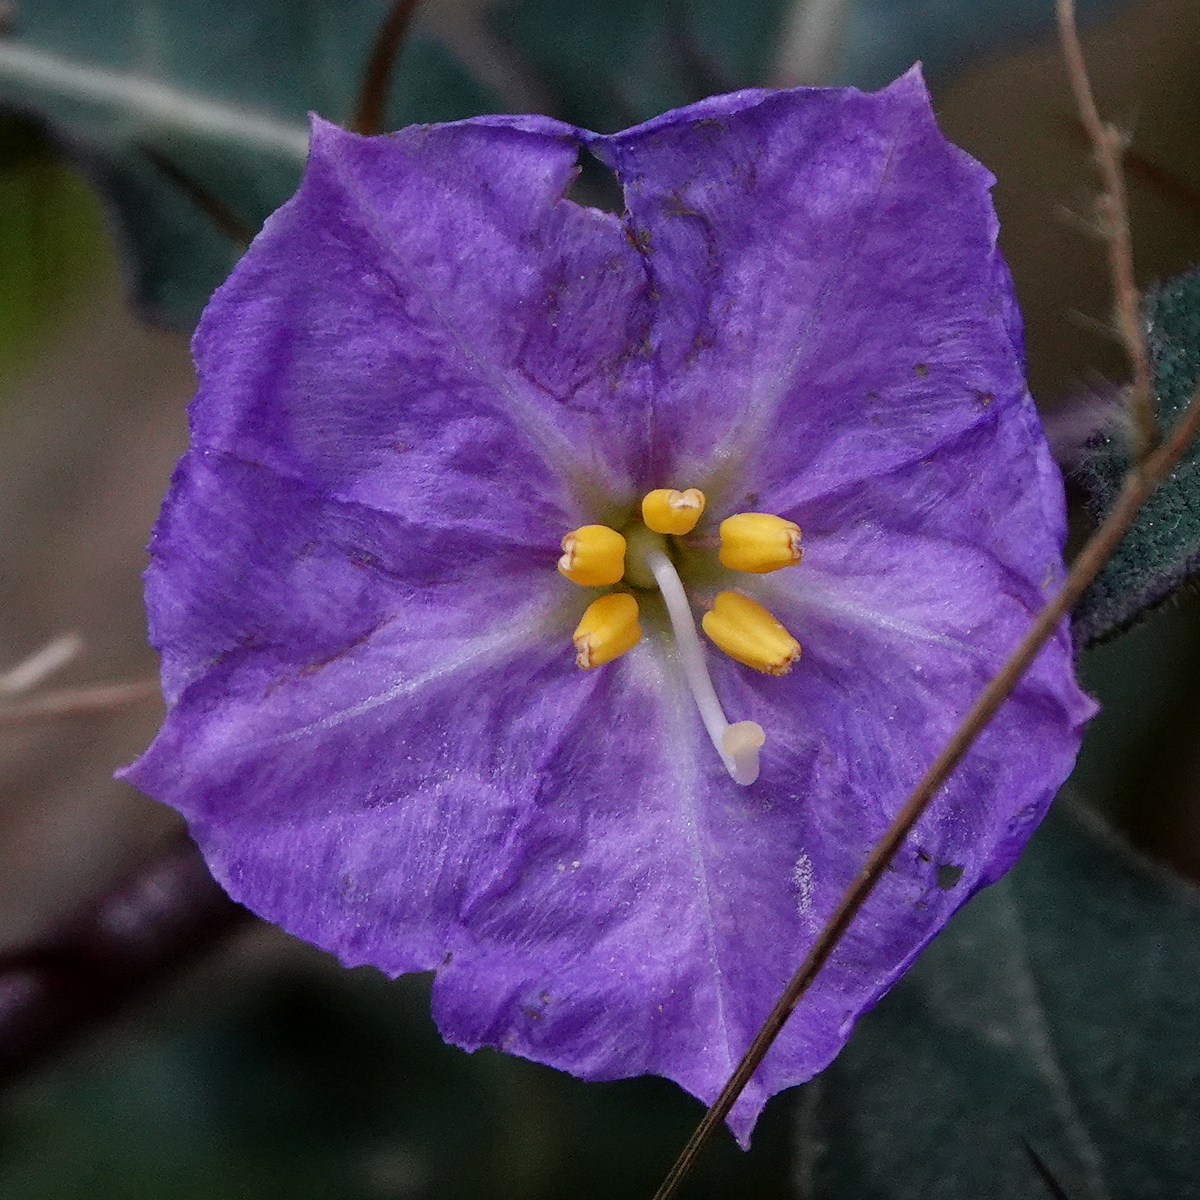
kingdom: Plantae
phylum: Tracheophyta
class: Magnoliopsida
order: Solanales
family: Solanaceae
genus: Solanum
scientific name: Solanum pungetium
